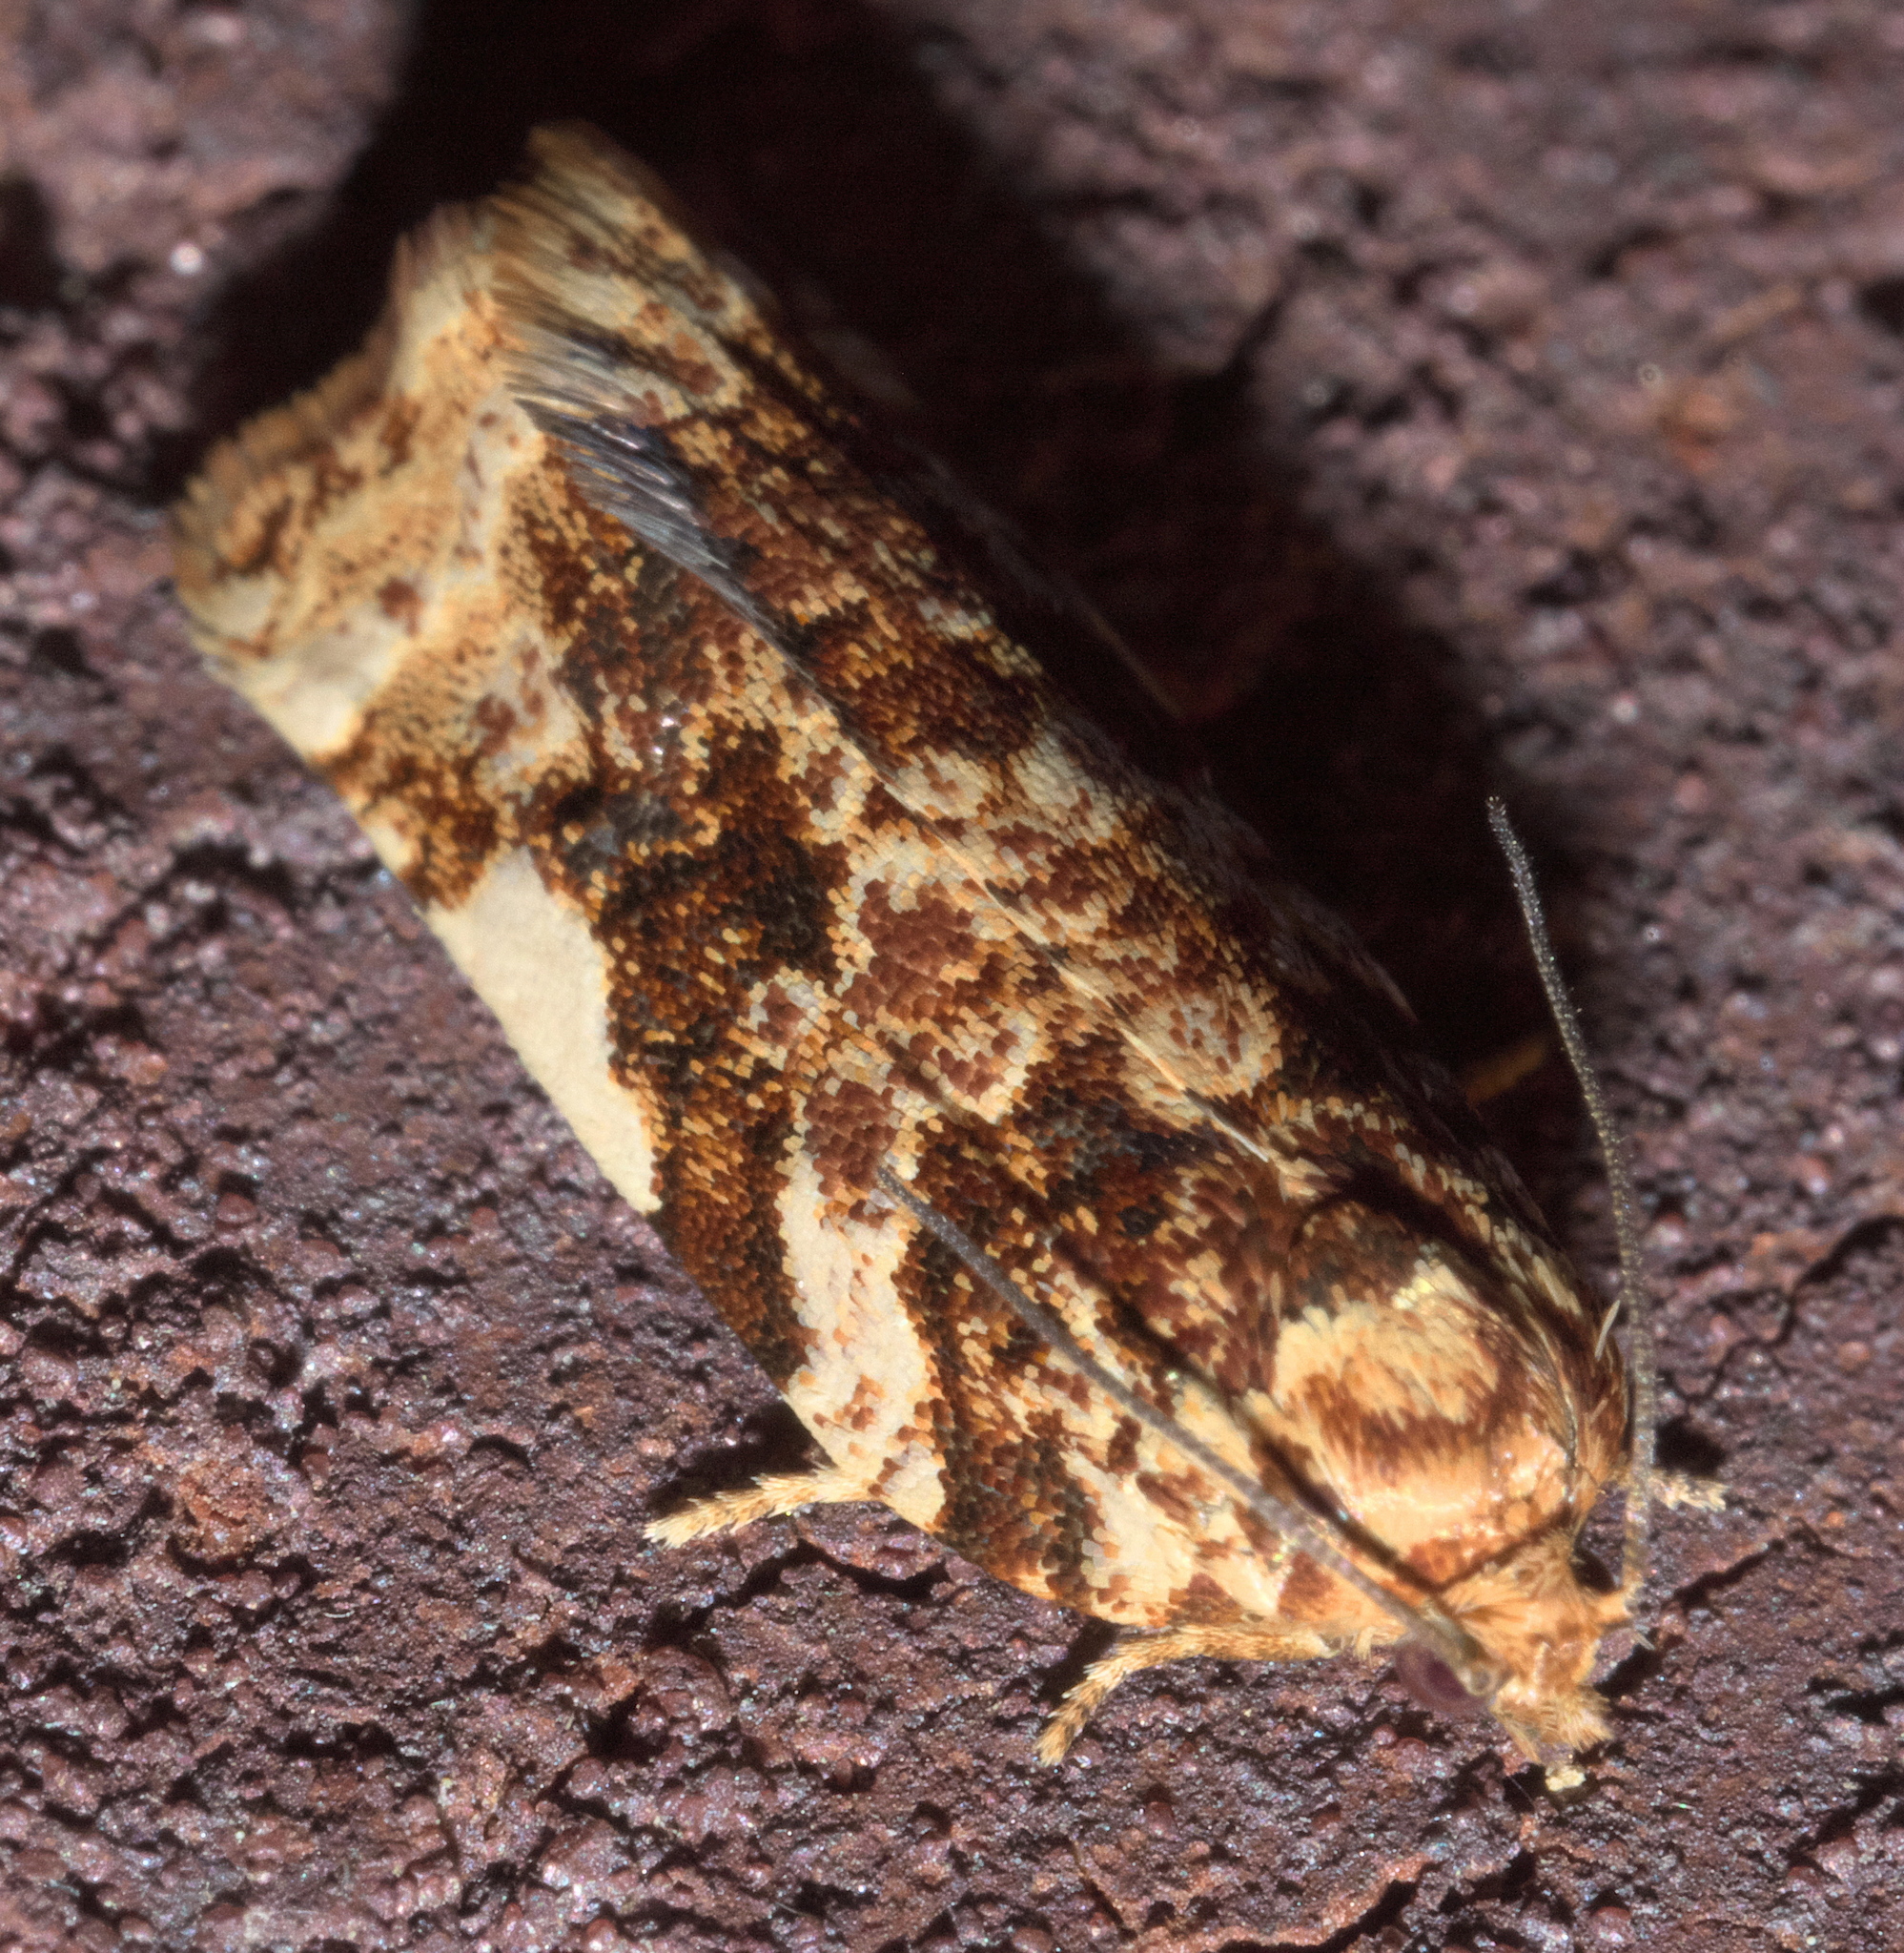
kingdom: Animalia
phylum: Arthropoda
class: Insecta
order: Lepidoptera
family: Tortricidae
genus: Archips
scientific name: Archips argyrospila
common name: Fruit-tree leafroller moth
